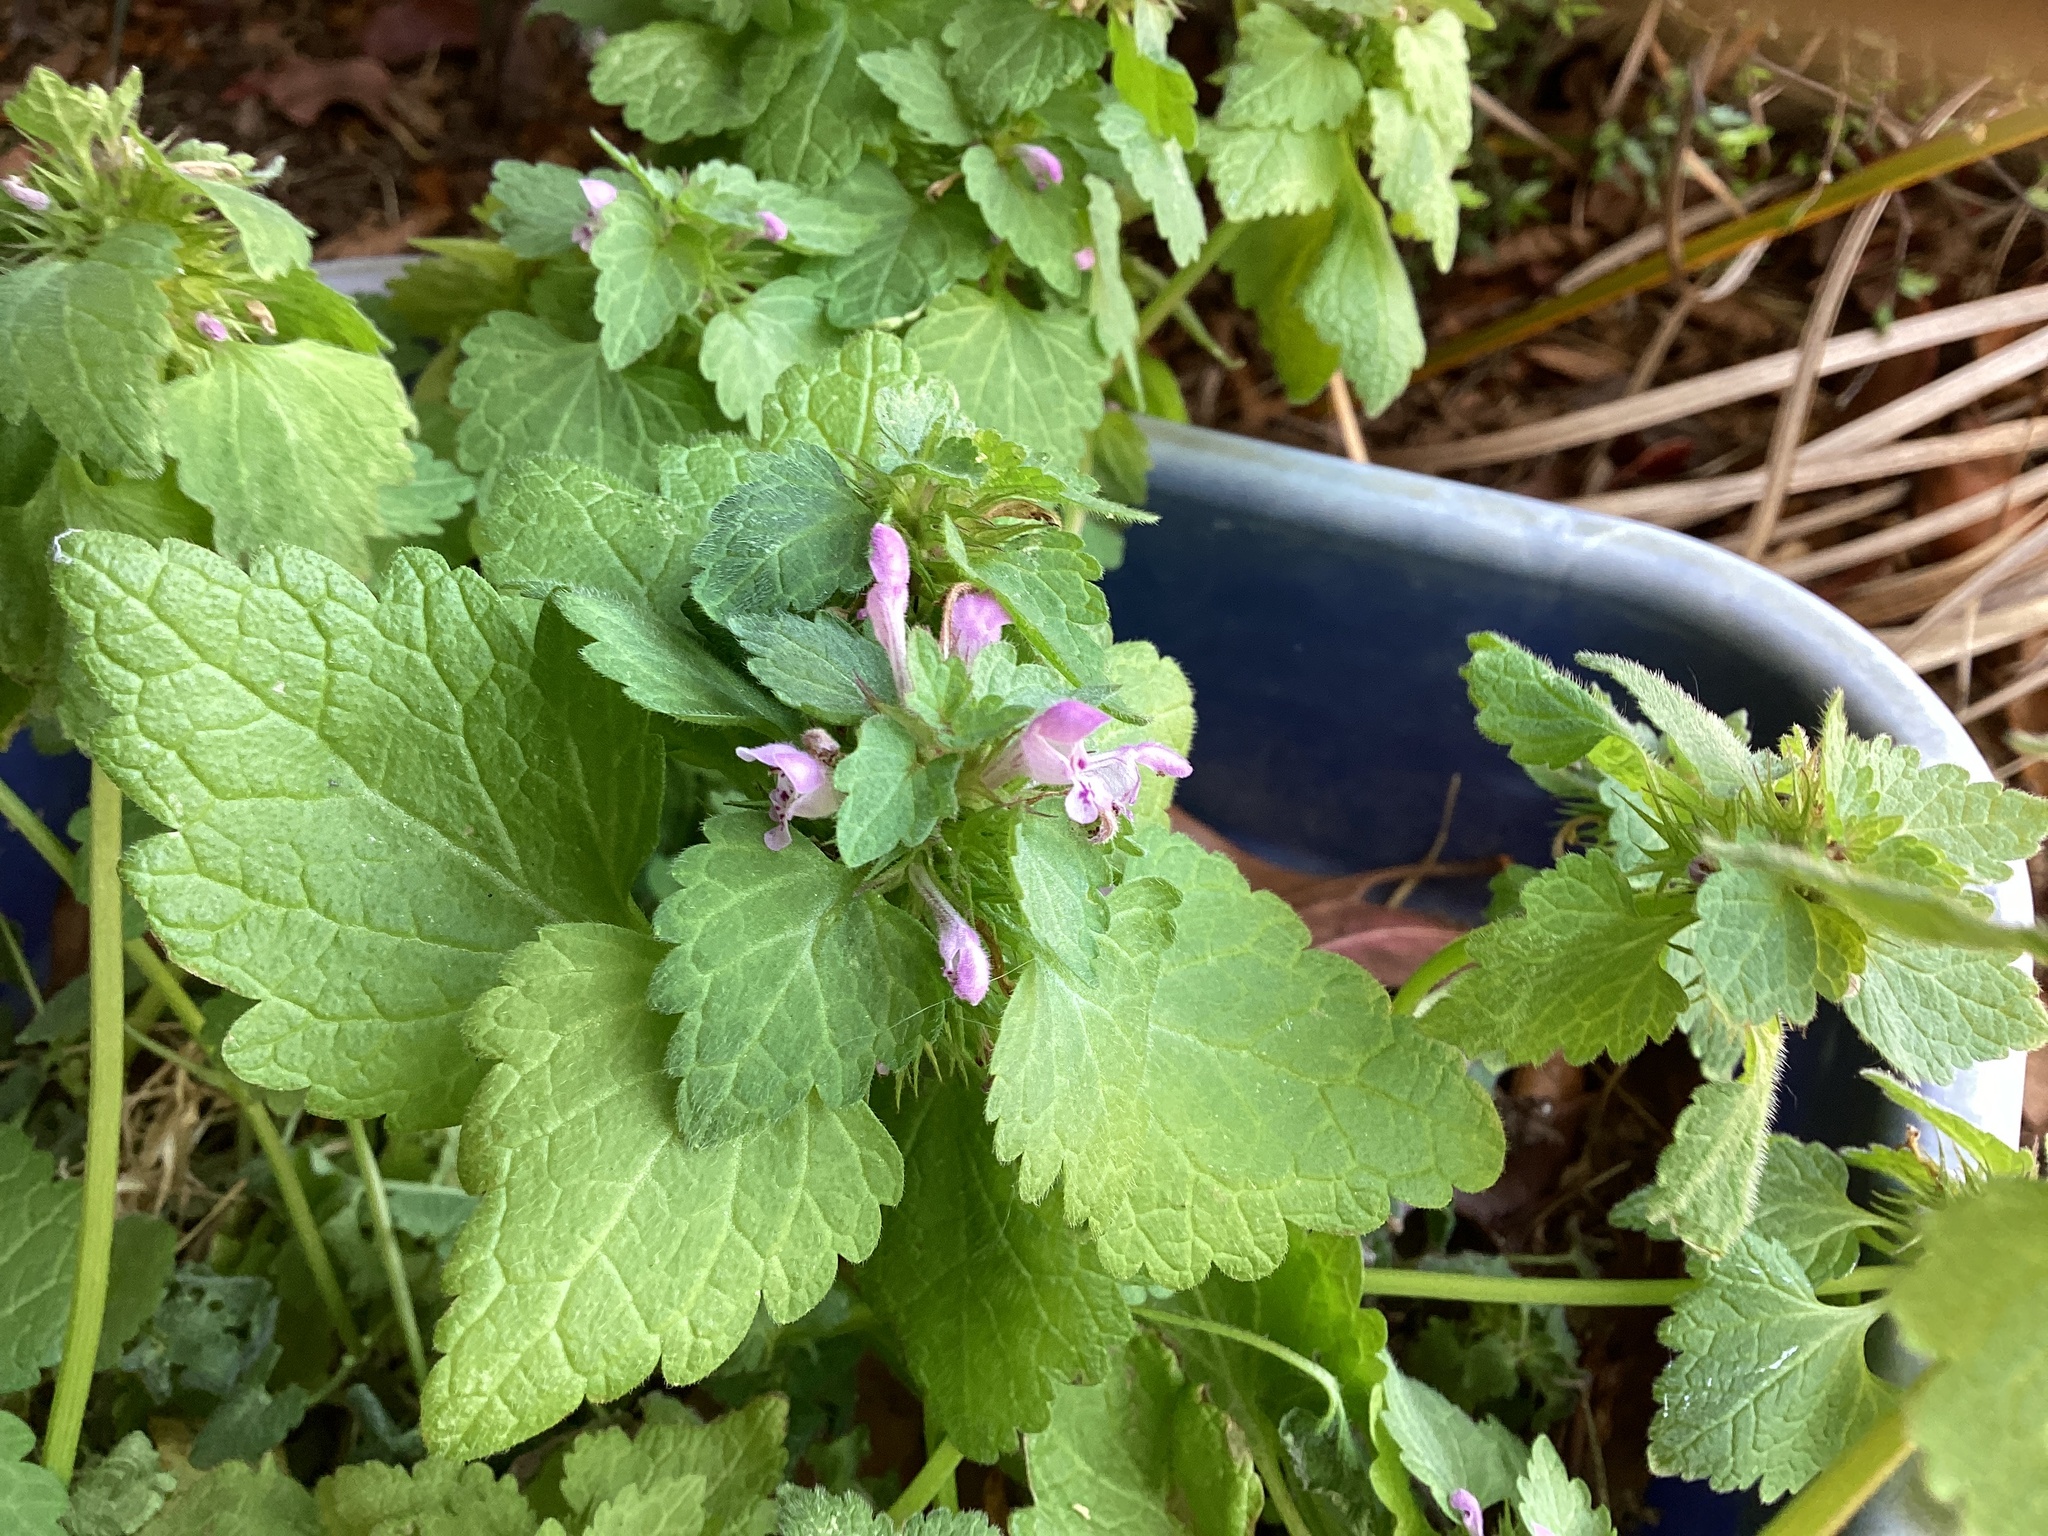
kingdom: Plantae
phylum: Tracheophyta
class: Magnoliopsida
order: Lamiales
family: Lamiaceae
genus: Lamium
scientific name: Lamium purpureum
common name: Red dead-nettle
